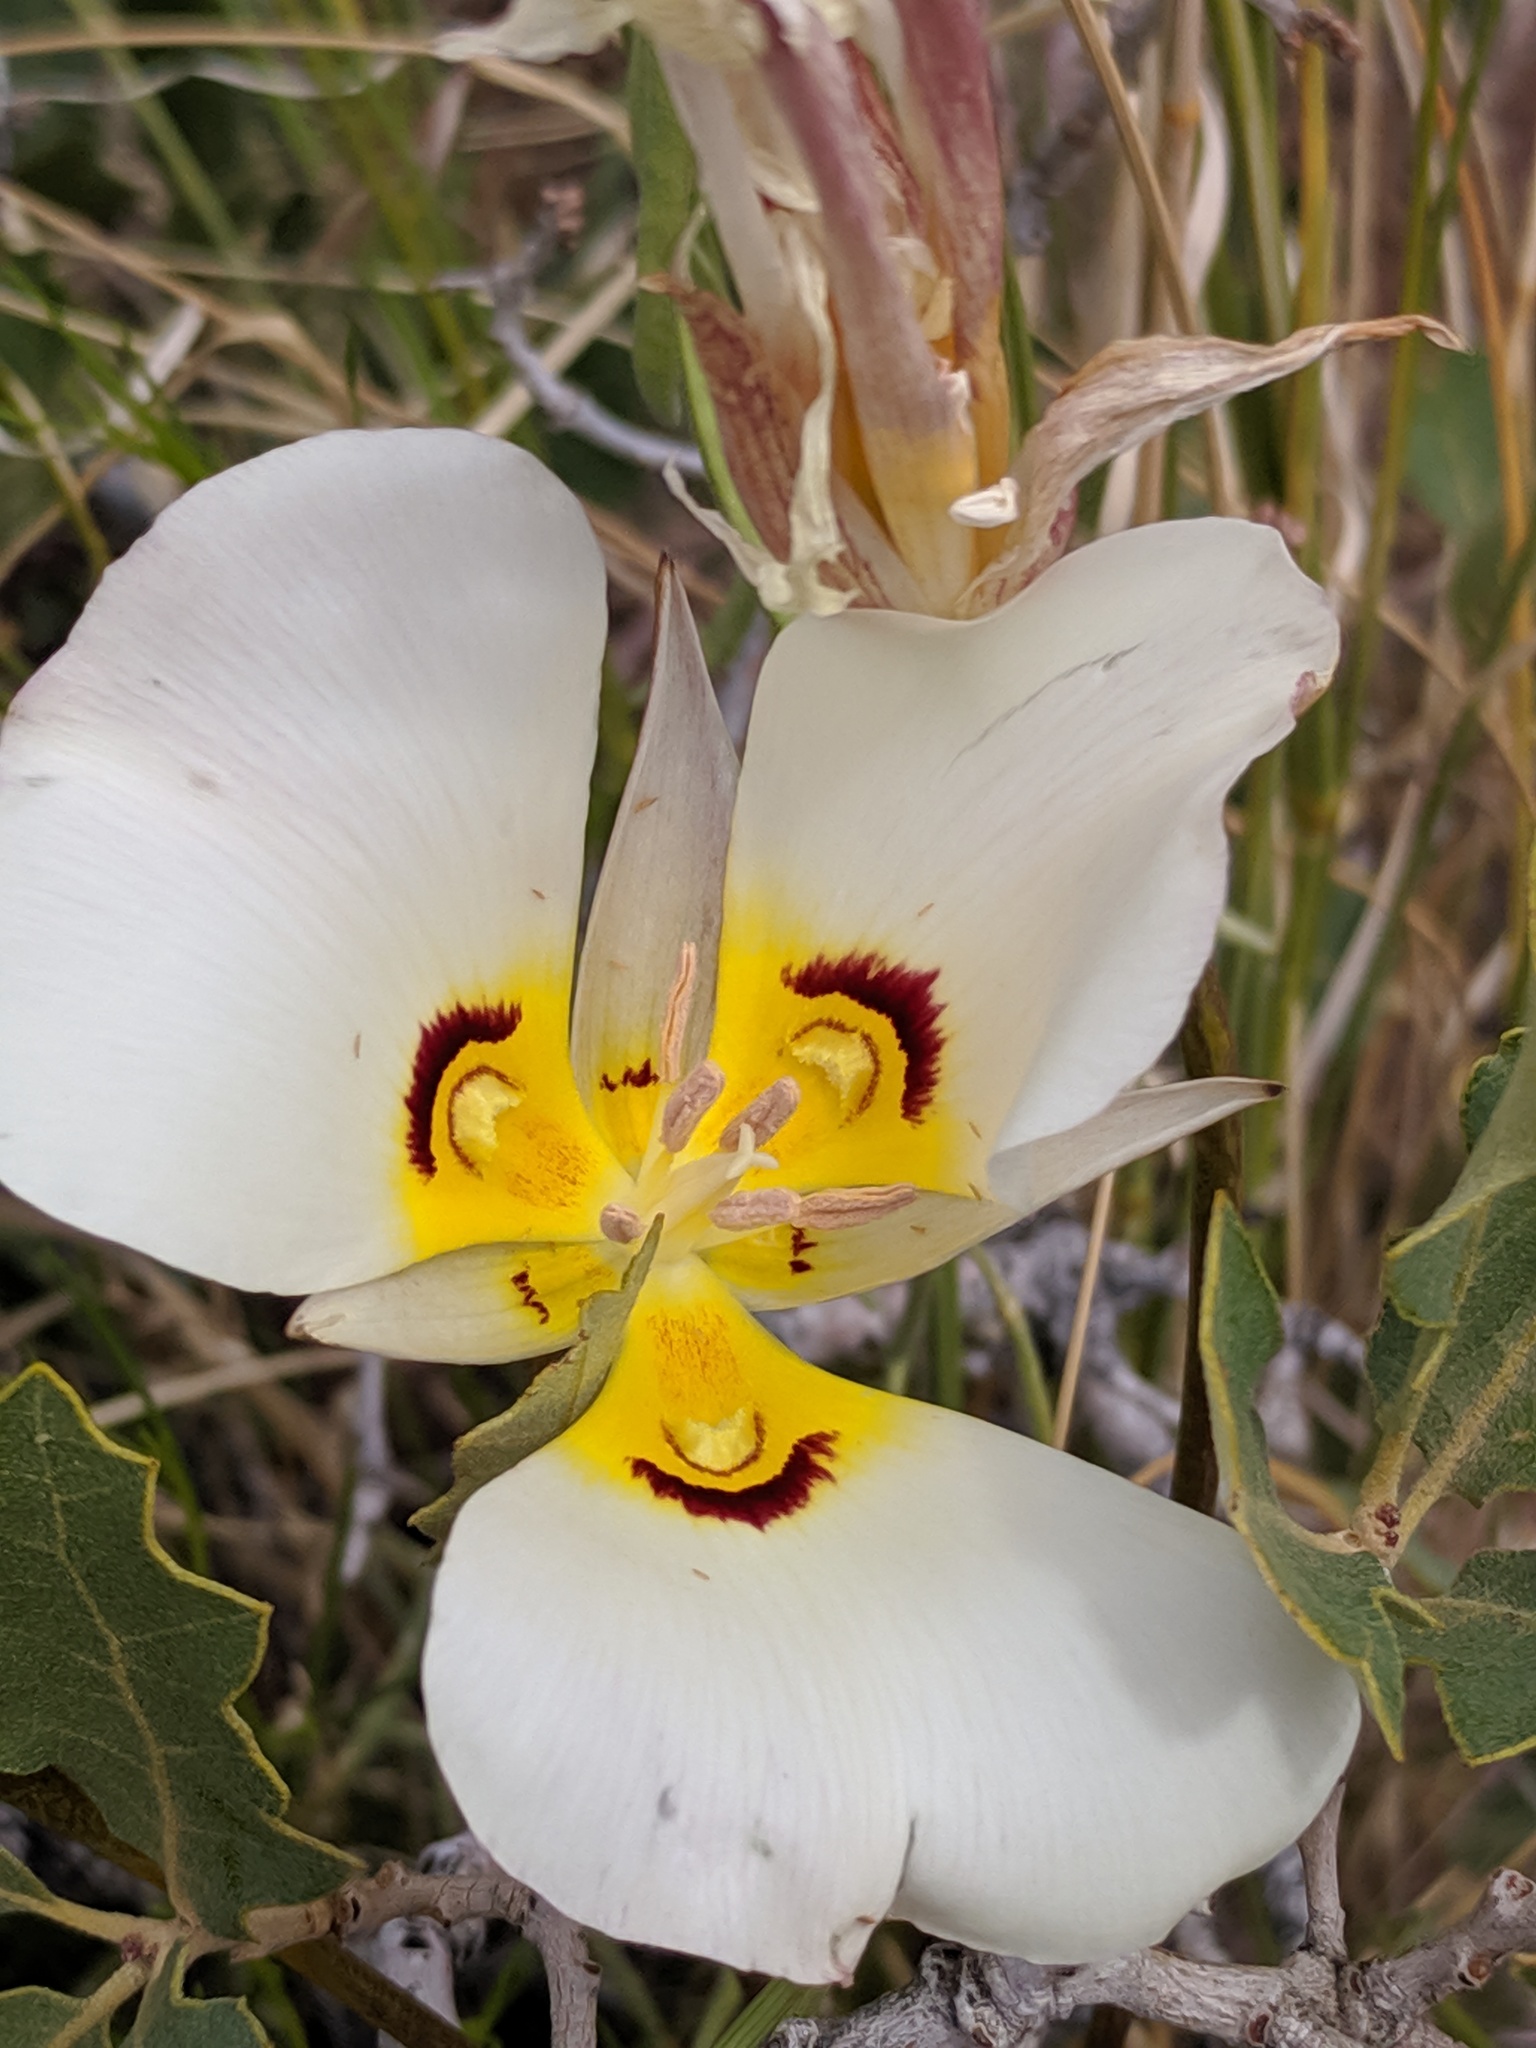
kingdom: Plantae
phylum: Tracheophyta
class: Liliopsida
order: Liliales
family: Liliaceae
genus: Calochortus
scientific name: Calochortus nuttallii
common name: Sego-lily
